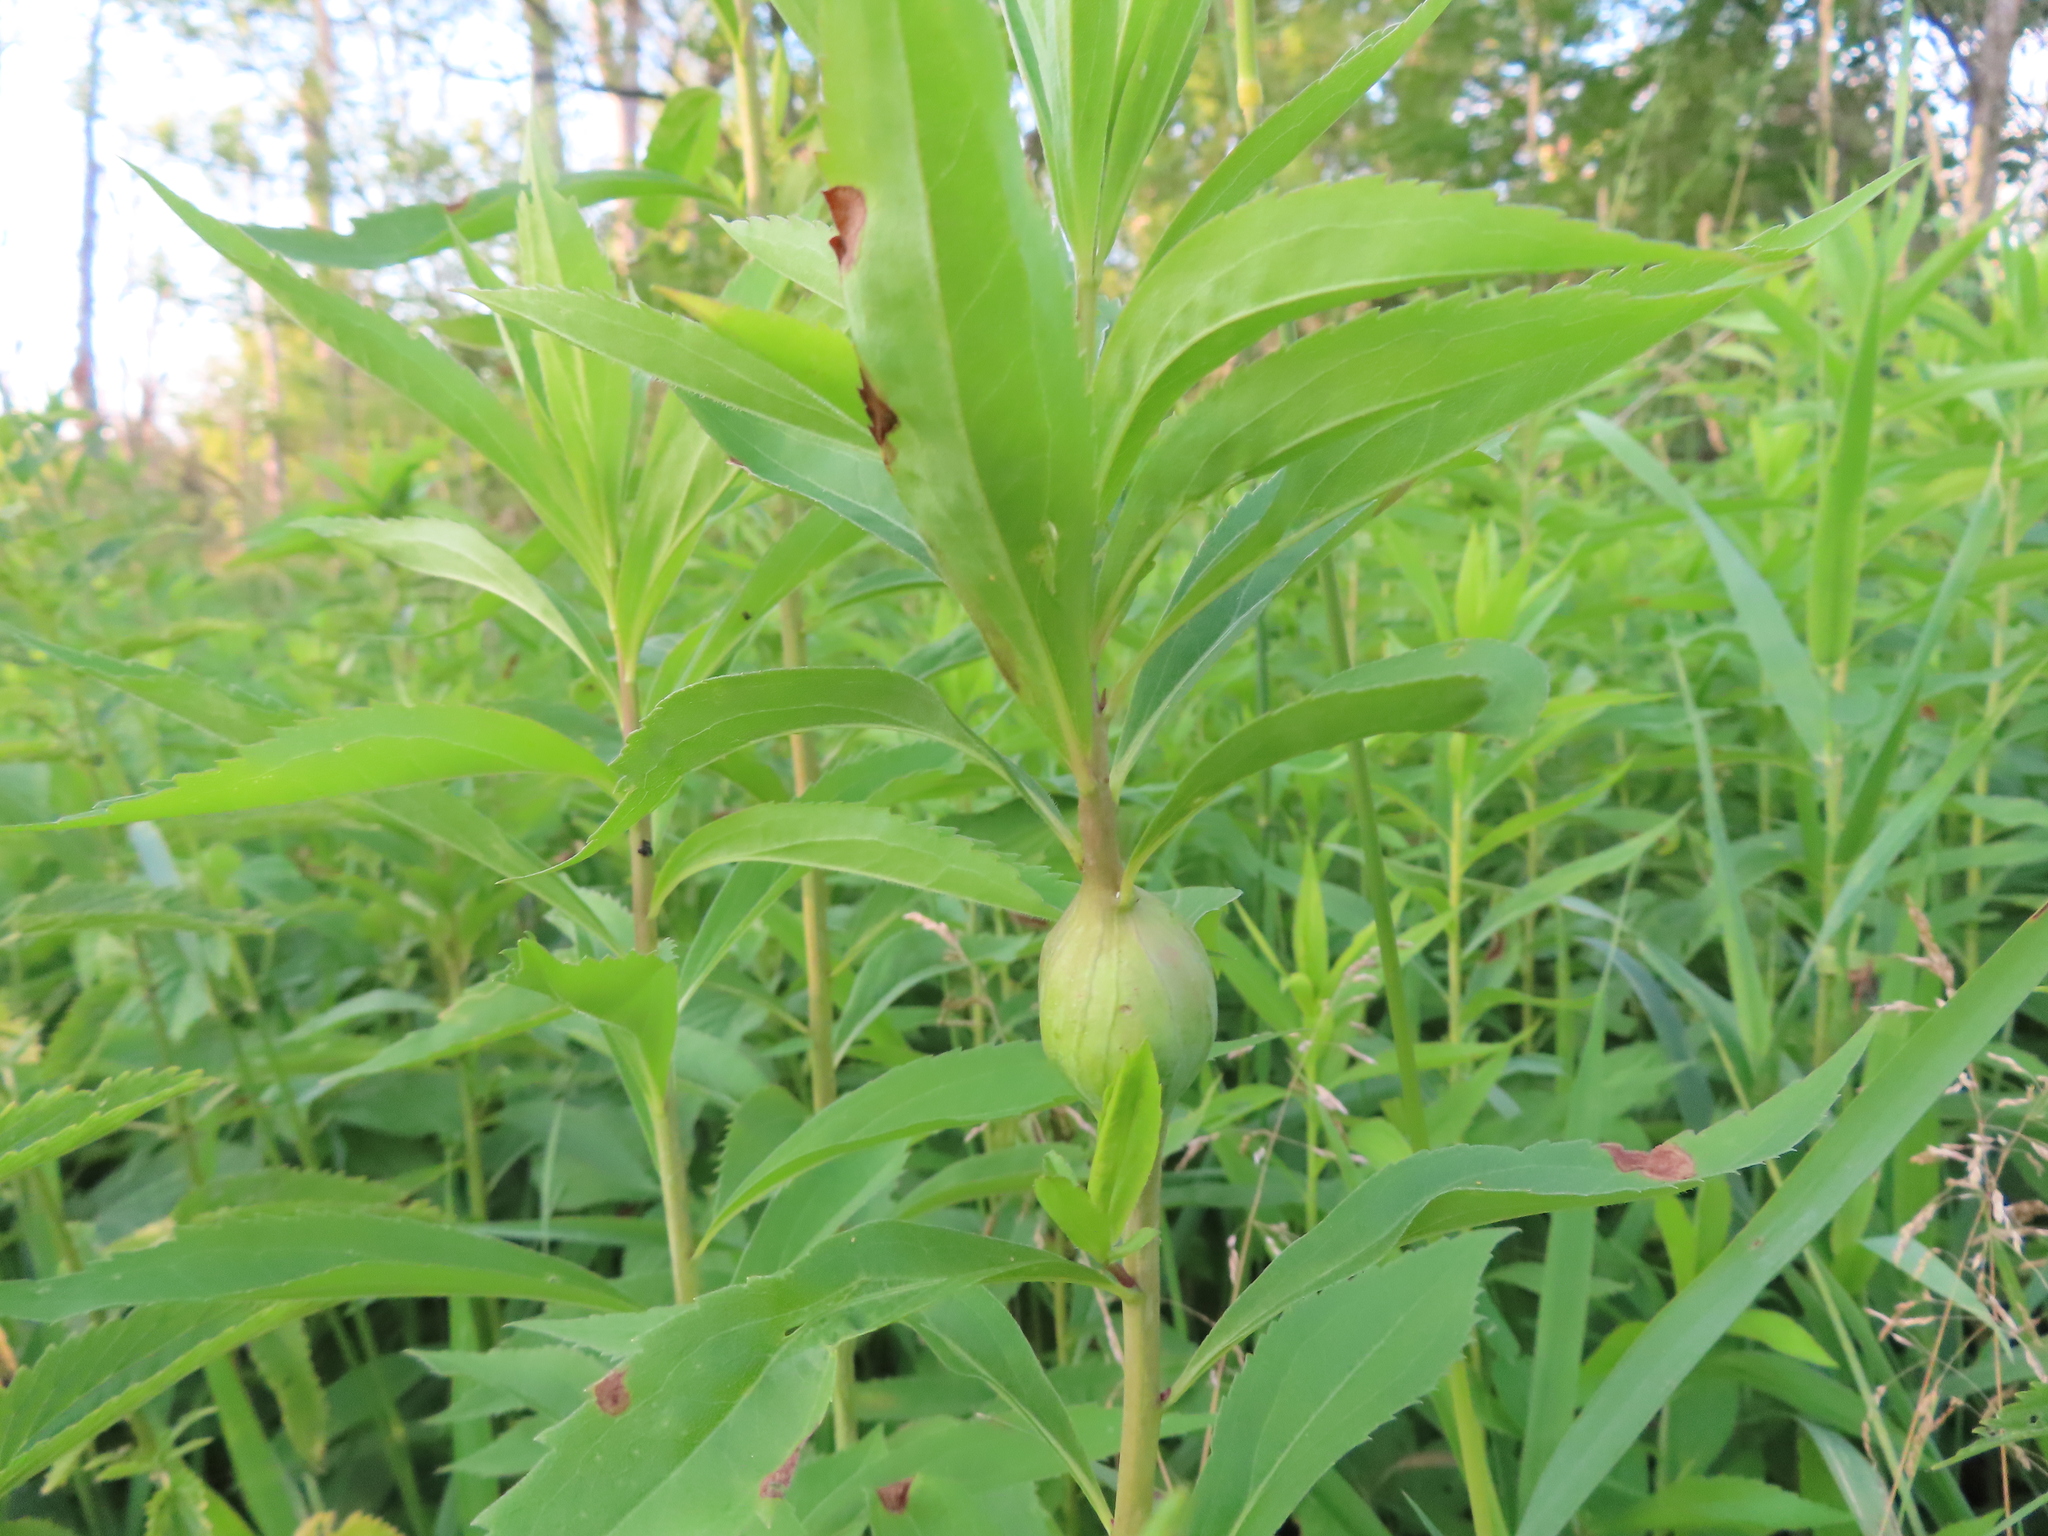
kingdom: Animalia
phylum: Arthropoda
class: Insecta
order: Diptera
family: Tephritidae
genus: Eurosta
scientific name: Eurosta solidaginis
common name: Goldenrod gall fly
